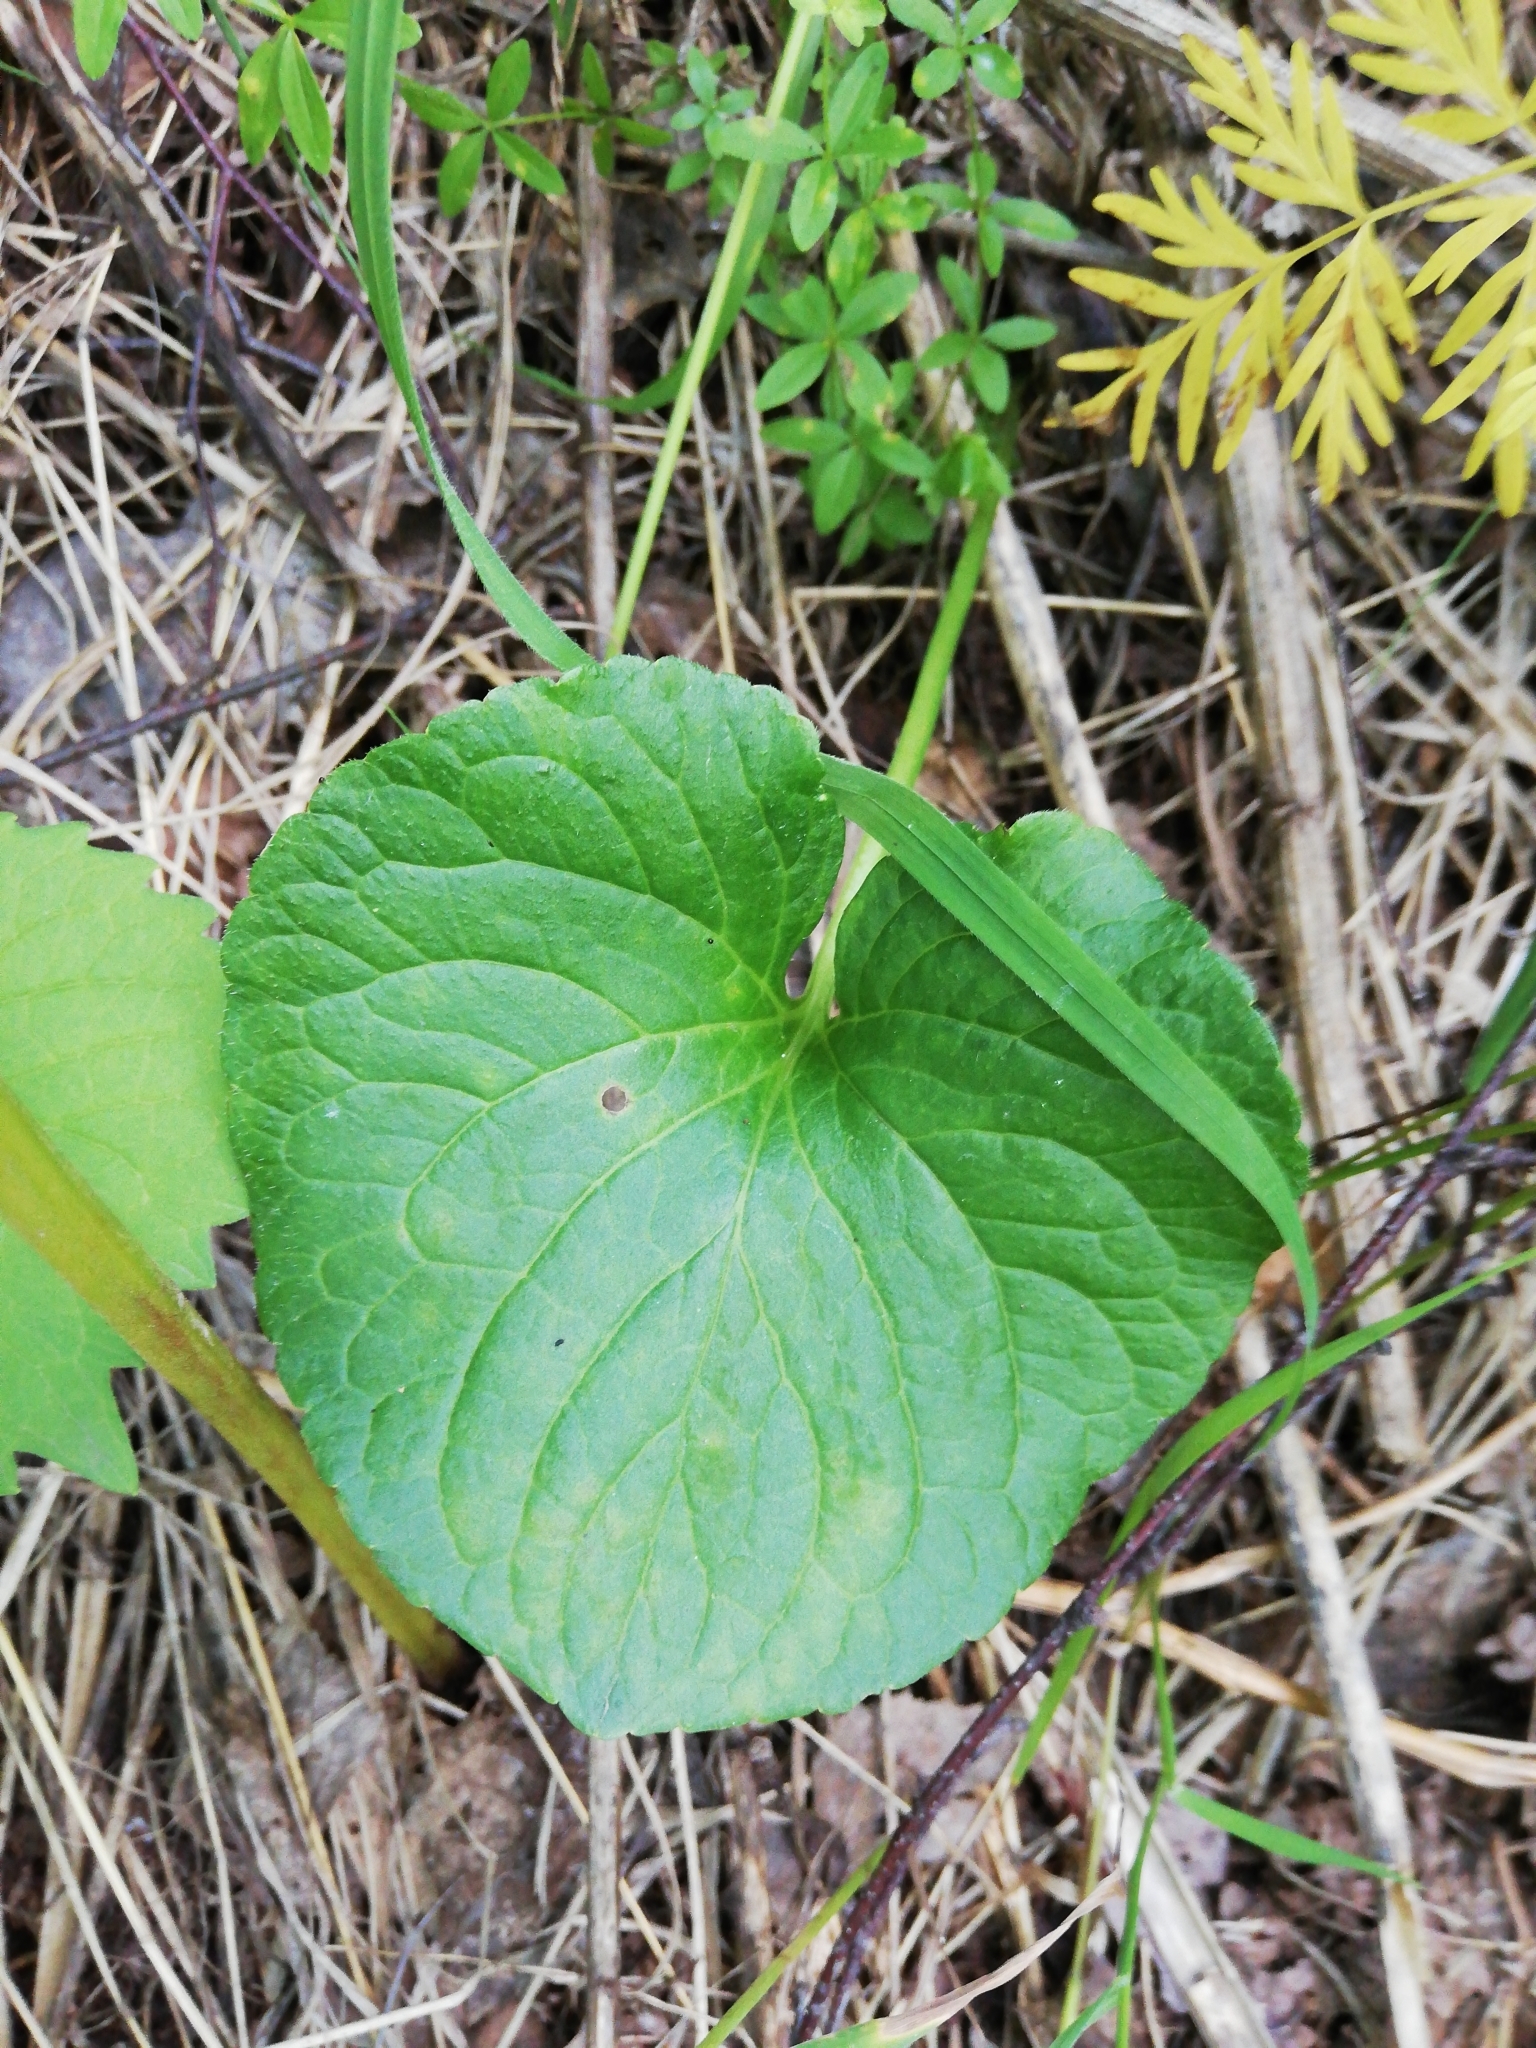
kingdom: Plantae
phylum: Tracheophyta
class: Magnoliopsida
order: Malpighiales
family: Violaceae
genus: Viola
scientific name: Viola mirabilis
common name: Wonder violet
